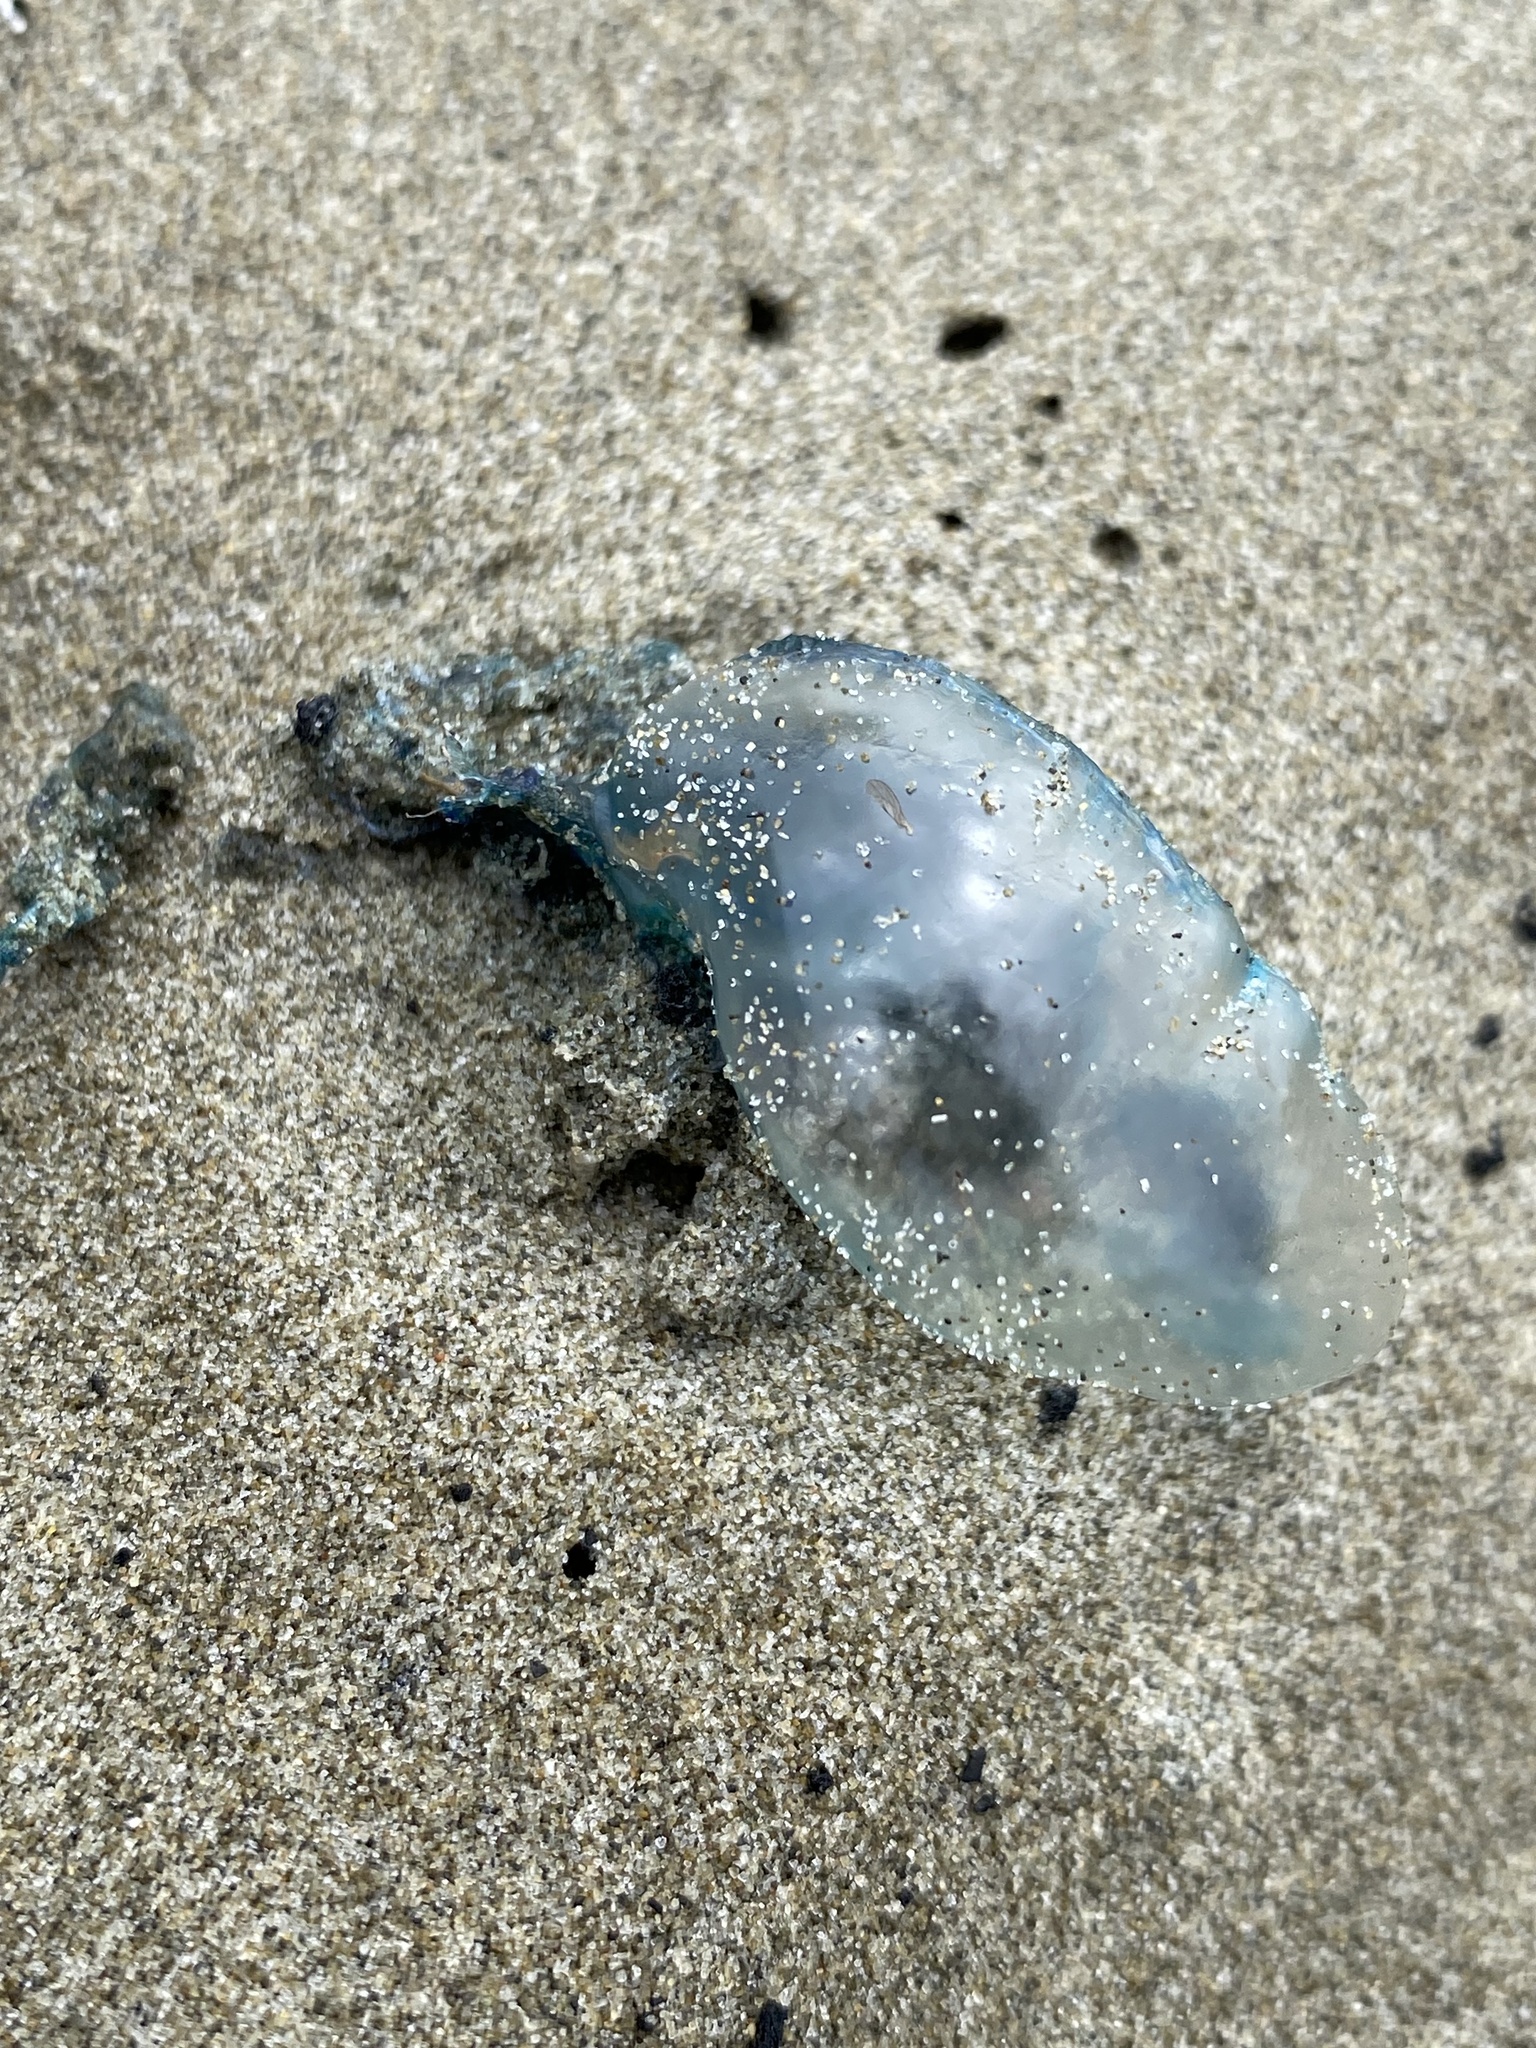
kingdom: Animalia
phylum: Cnidaria
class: Hydrozoa
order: Siphonophorae
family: Physaliidae
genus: Physalia
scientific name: Physalia physalis
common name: Portuguese man-of-war
